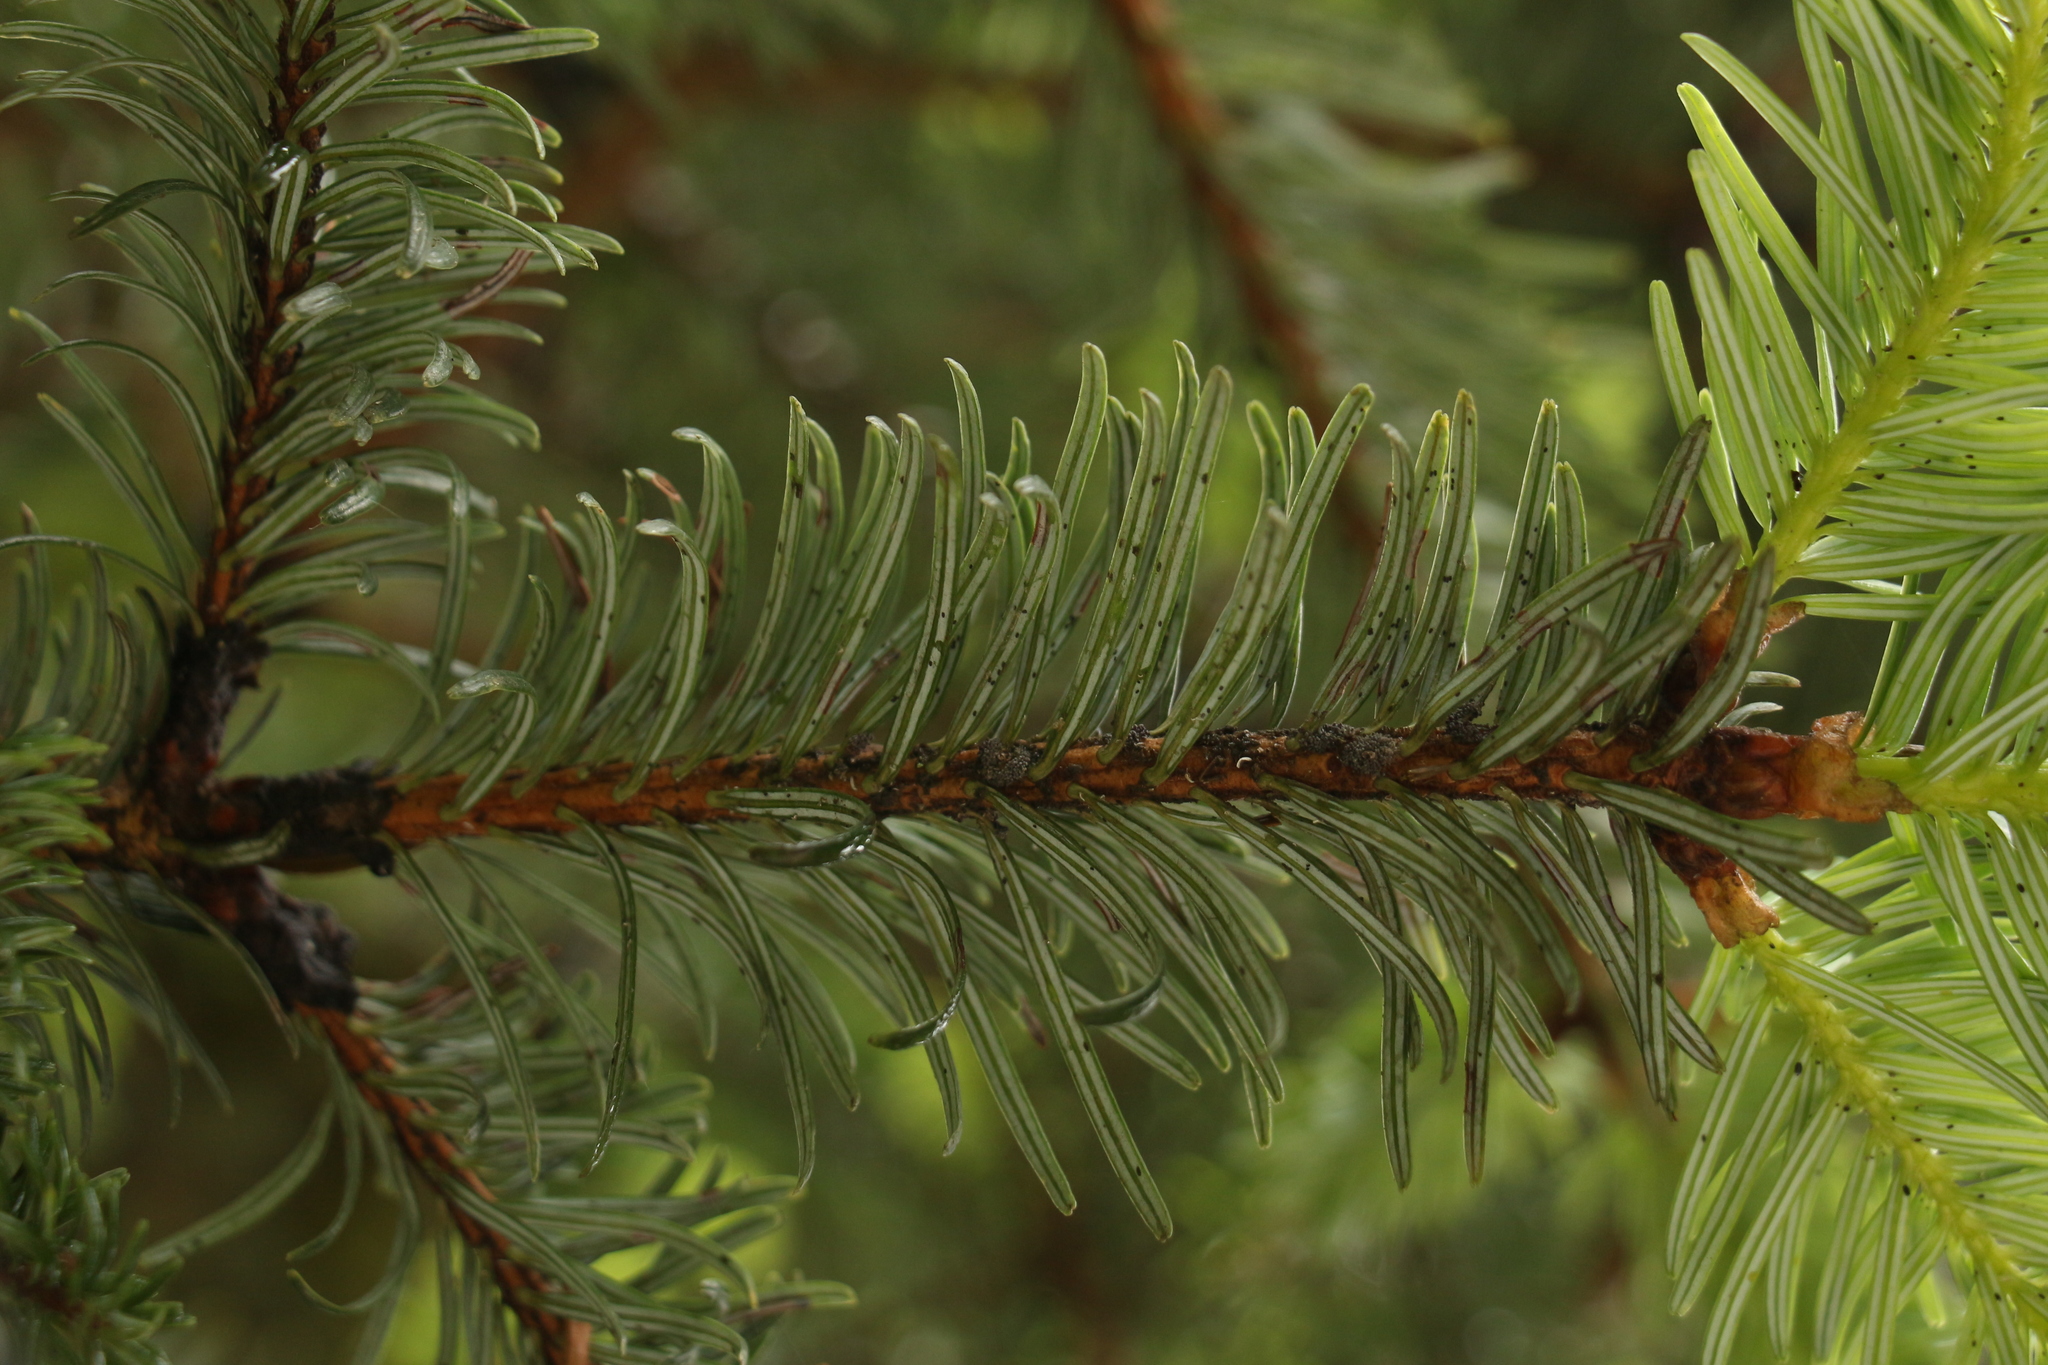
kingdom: Plantae
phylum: Tracheophyta
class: Pinopsida
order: Pinales
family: Pinaceae
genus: Abies
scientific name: Abies densa
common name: Sikkim fir
